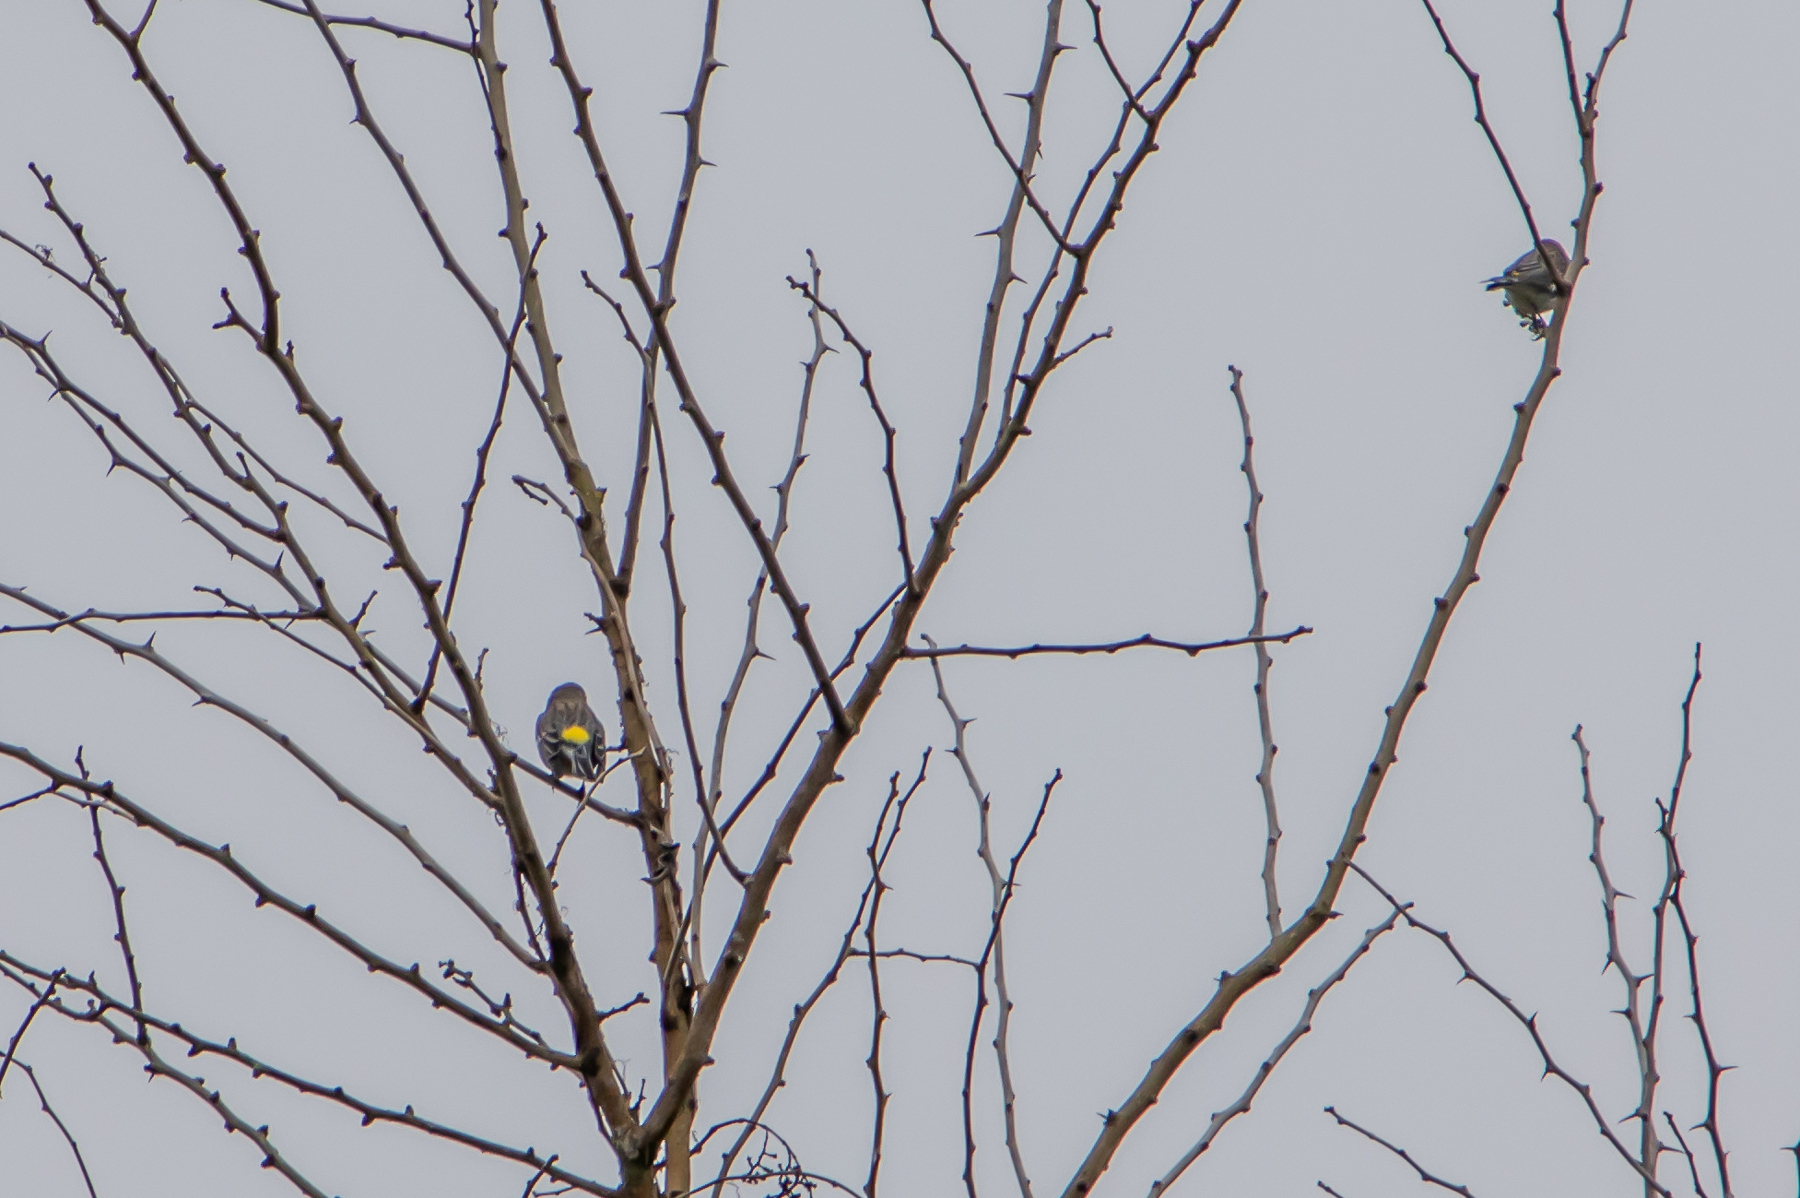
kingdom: Animalia
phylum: Chordata
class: Aves
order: Passeriformes
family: Parulidae
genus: Setophaga
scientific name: Setophaga coronata
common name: Myrtle warbler
